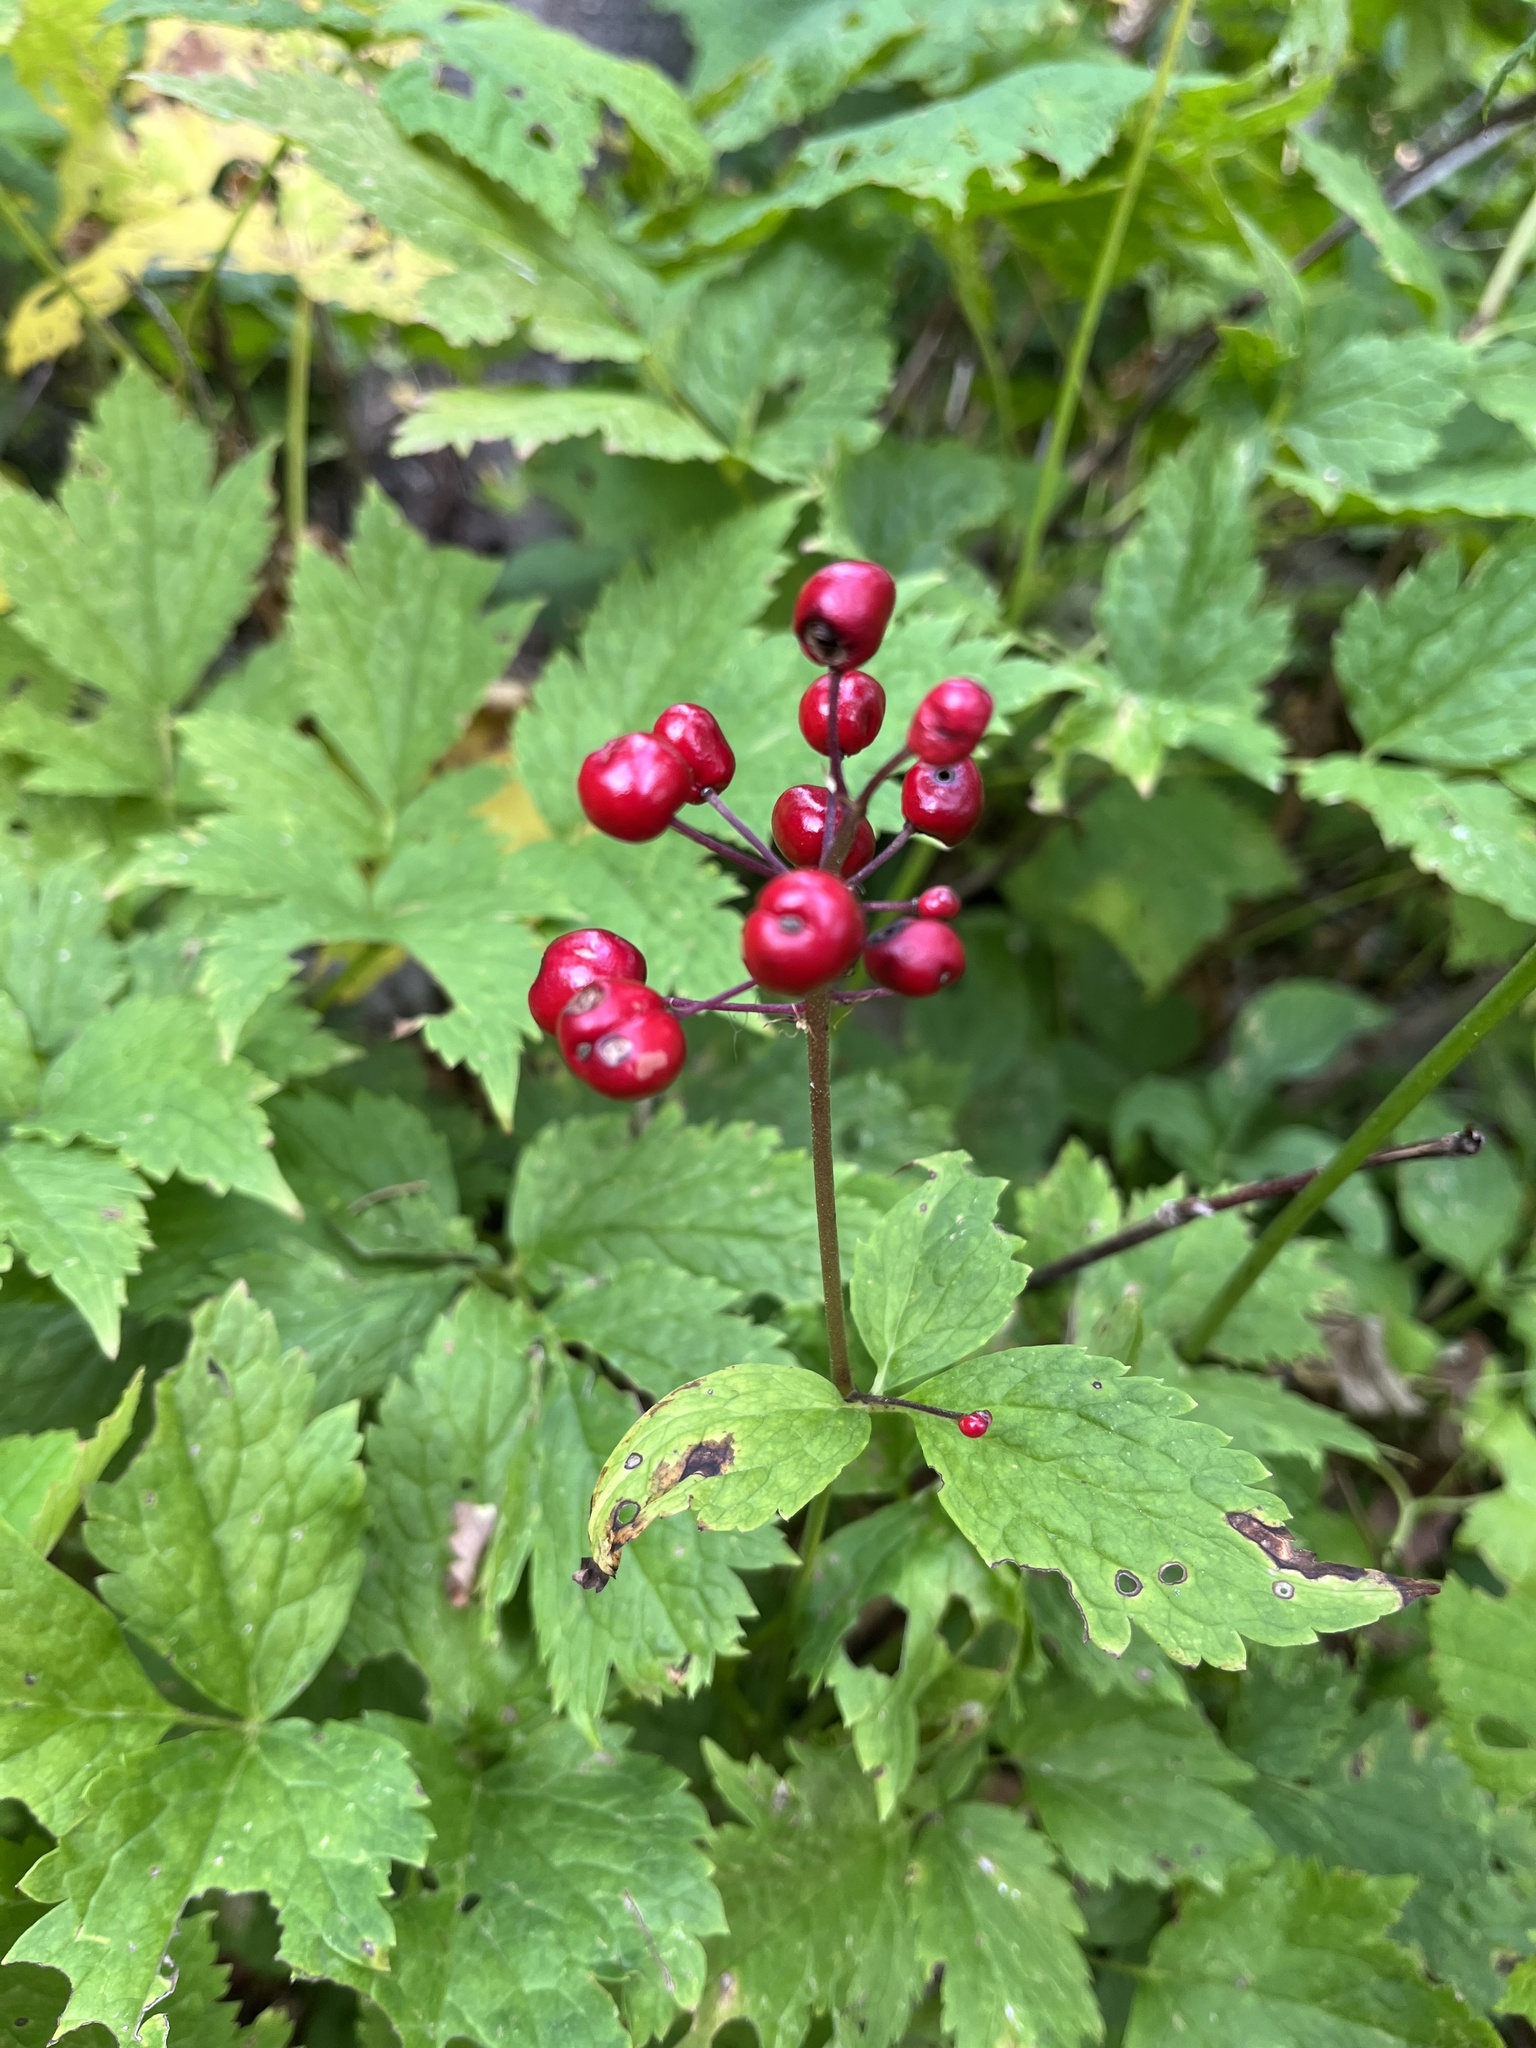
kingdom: Plantae
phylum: Tracheophyta
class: Magnoliopsida
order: Ranunculales
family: Ranunculaceae
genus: Actaea
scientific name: Actaea rubra
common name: Red baneberry
